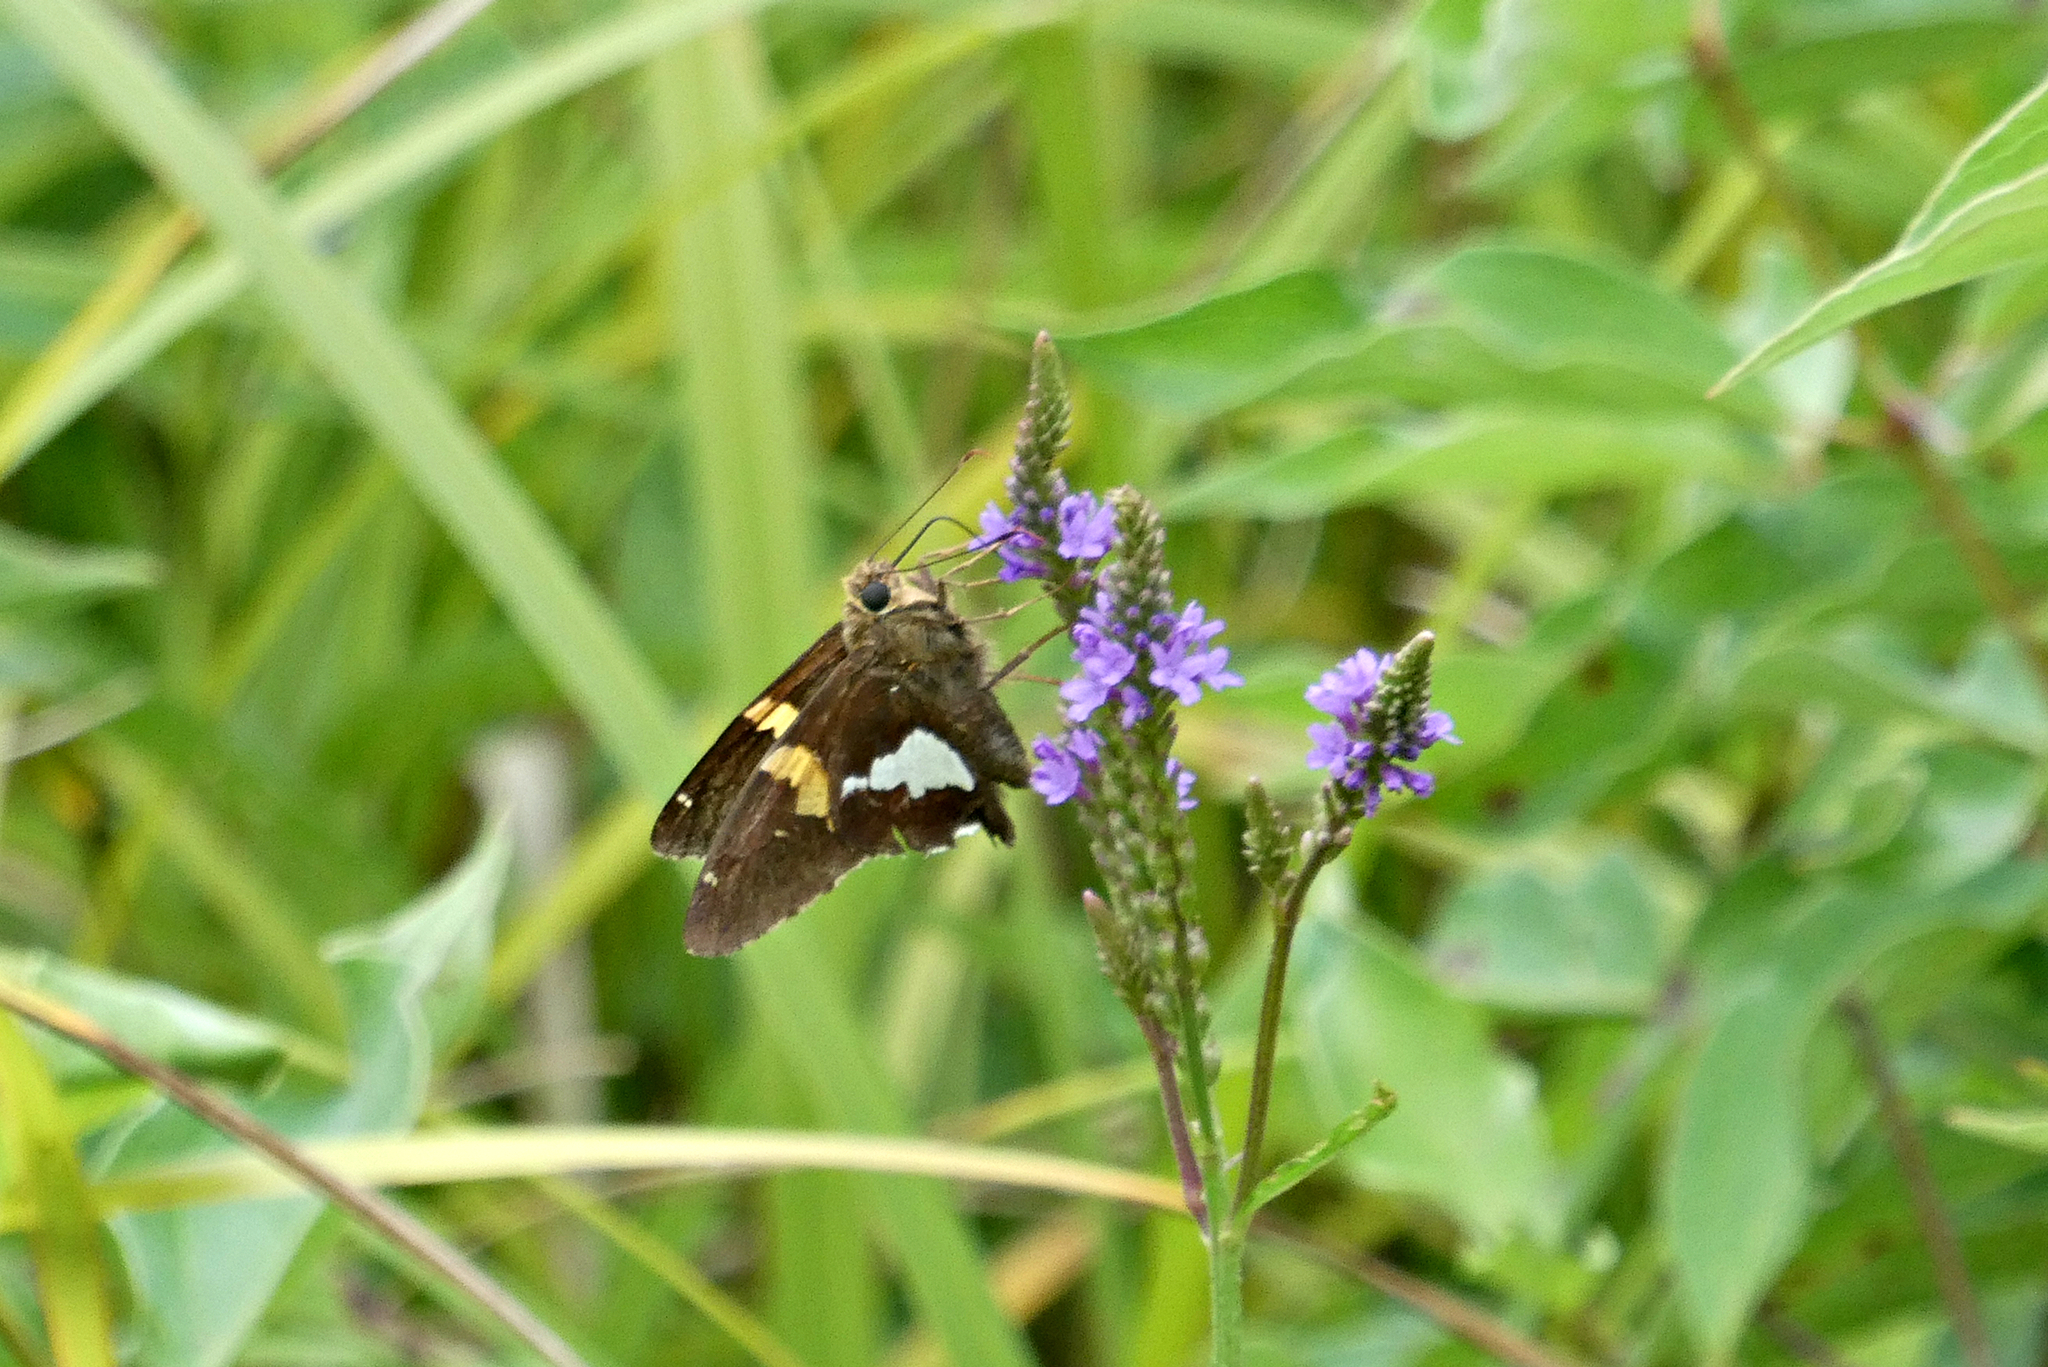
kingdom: Animalia
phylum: Arthropoda
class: Insecta
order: Lepidoptera
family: Hesperiidae
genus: Epargyreus
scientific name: Epargyreus clarus
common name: Silver-spotted skipper
